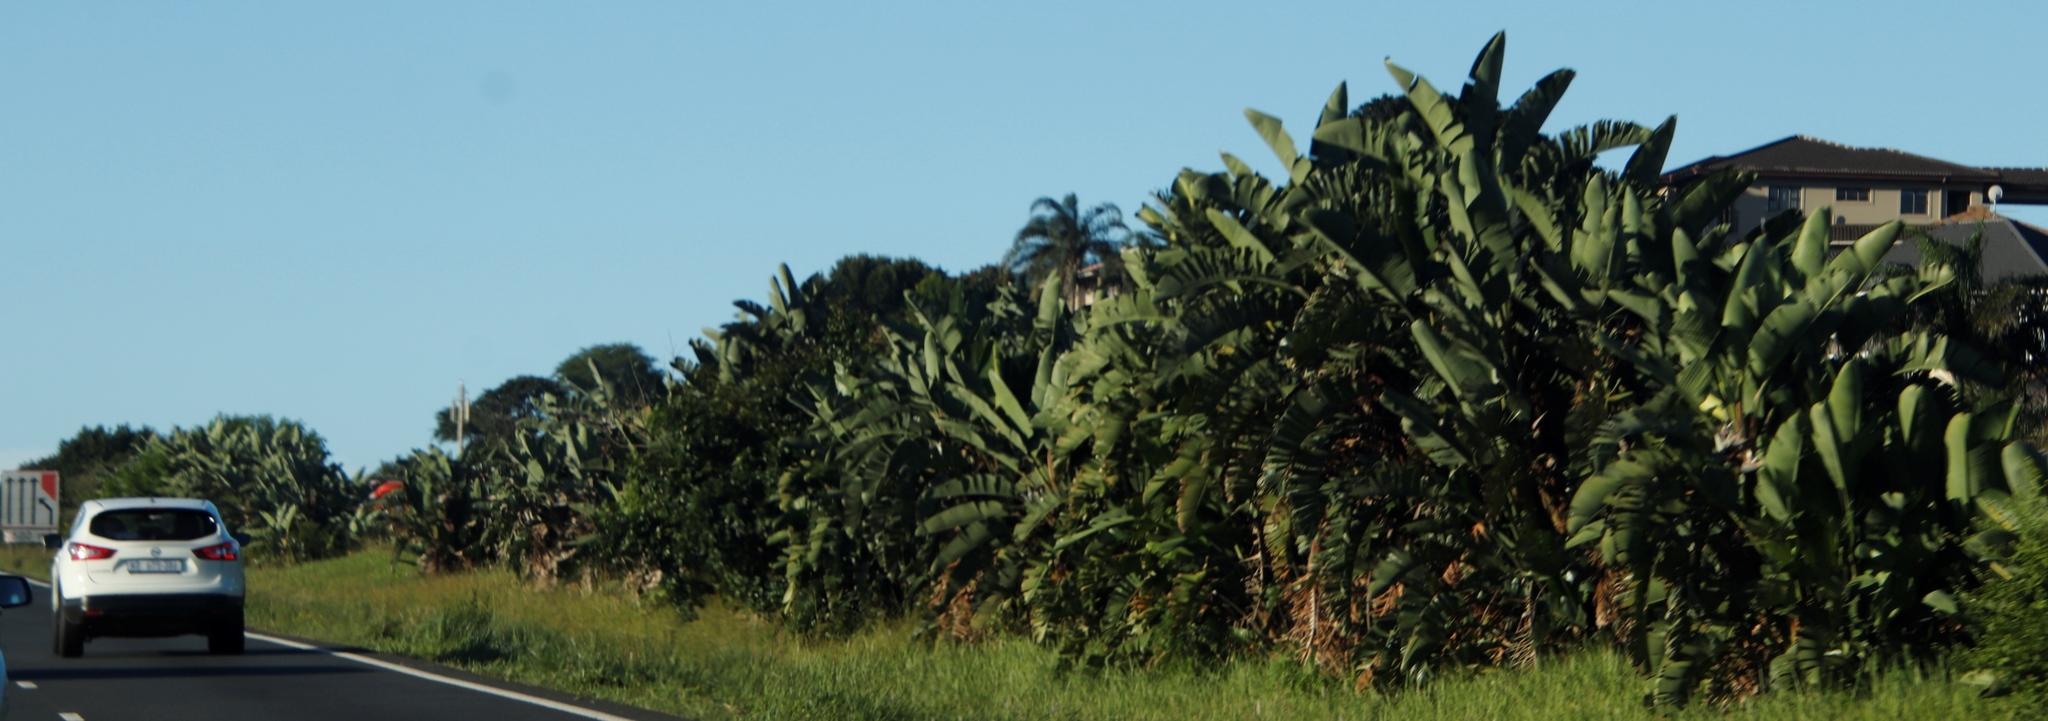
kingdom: Plantae
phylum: Tracheophyta
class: Liliopsida
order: Zingiberales
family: Strelitziaceae
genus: Strelitzia
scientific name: Strelitzia nicolai
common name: Bird-of-paradise tree
